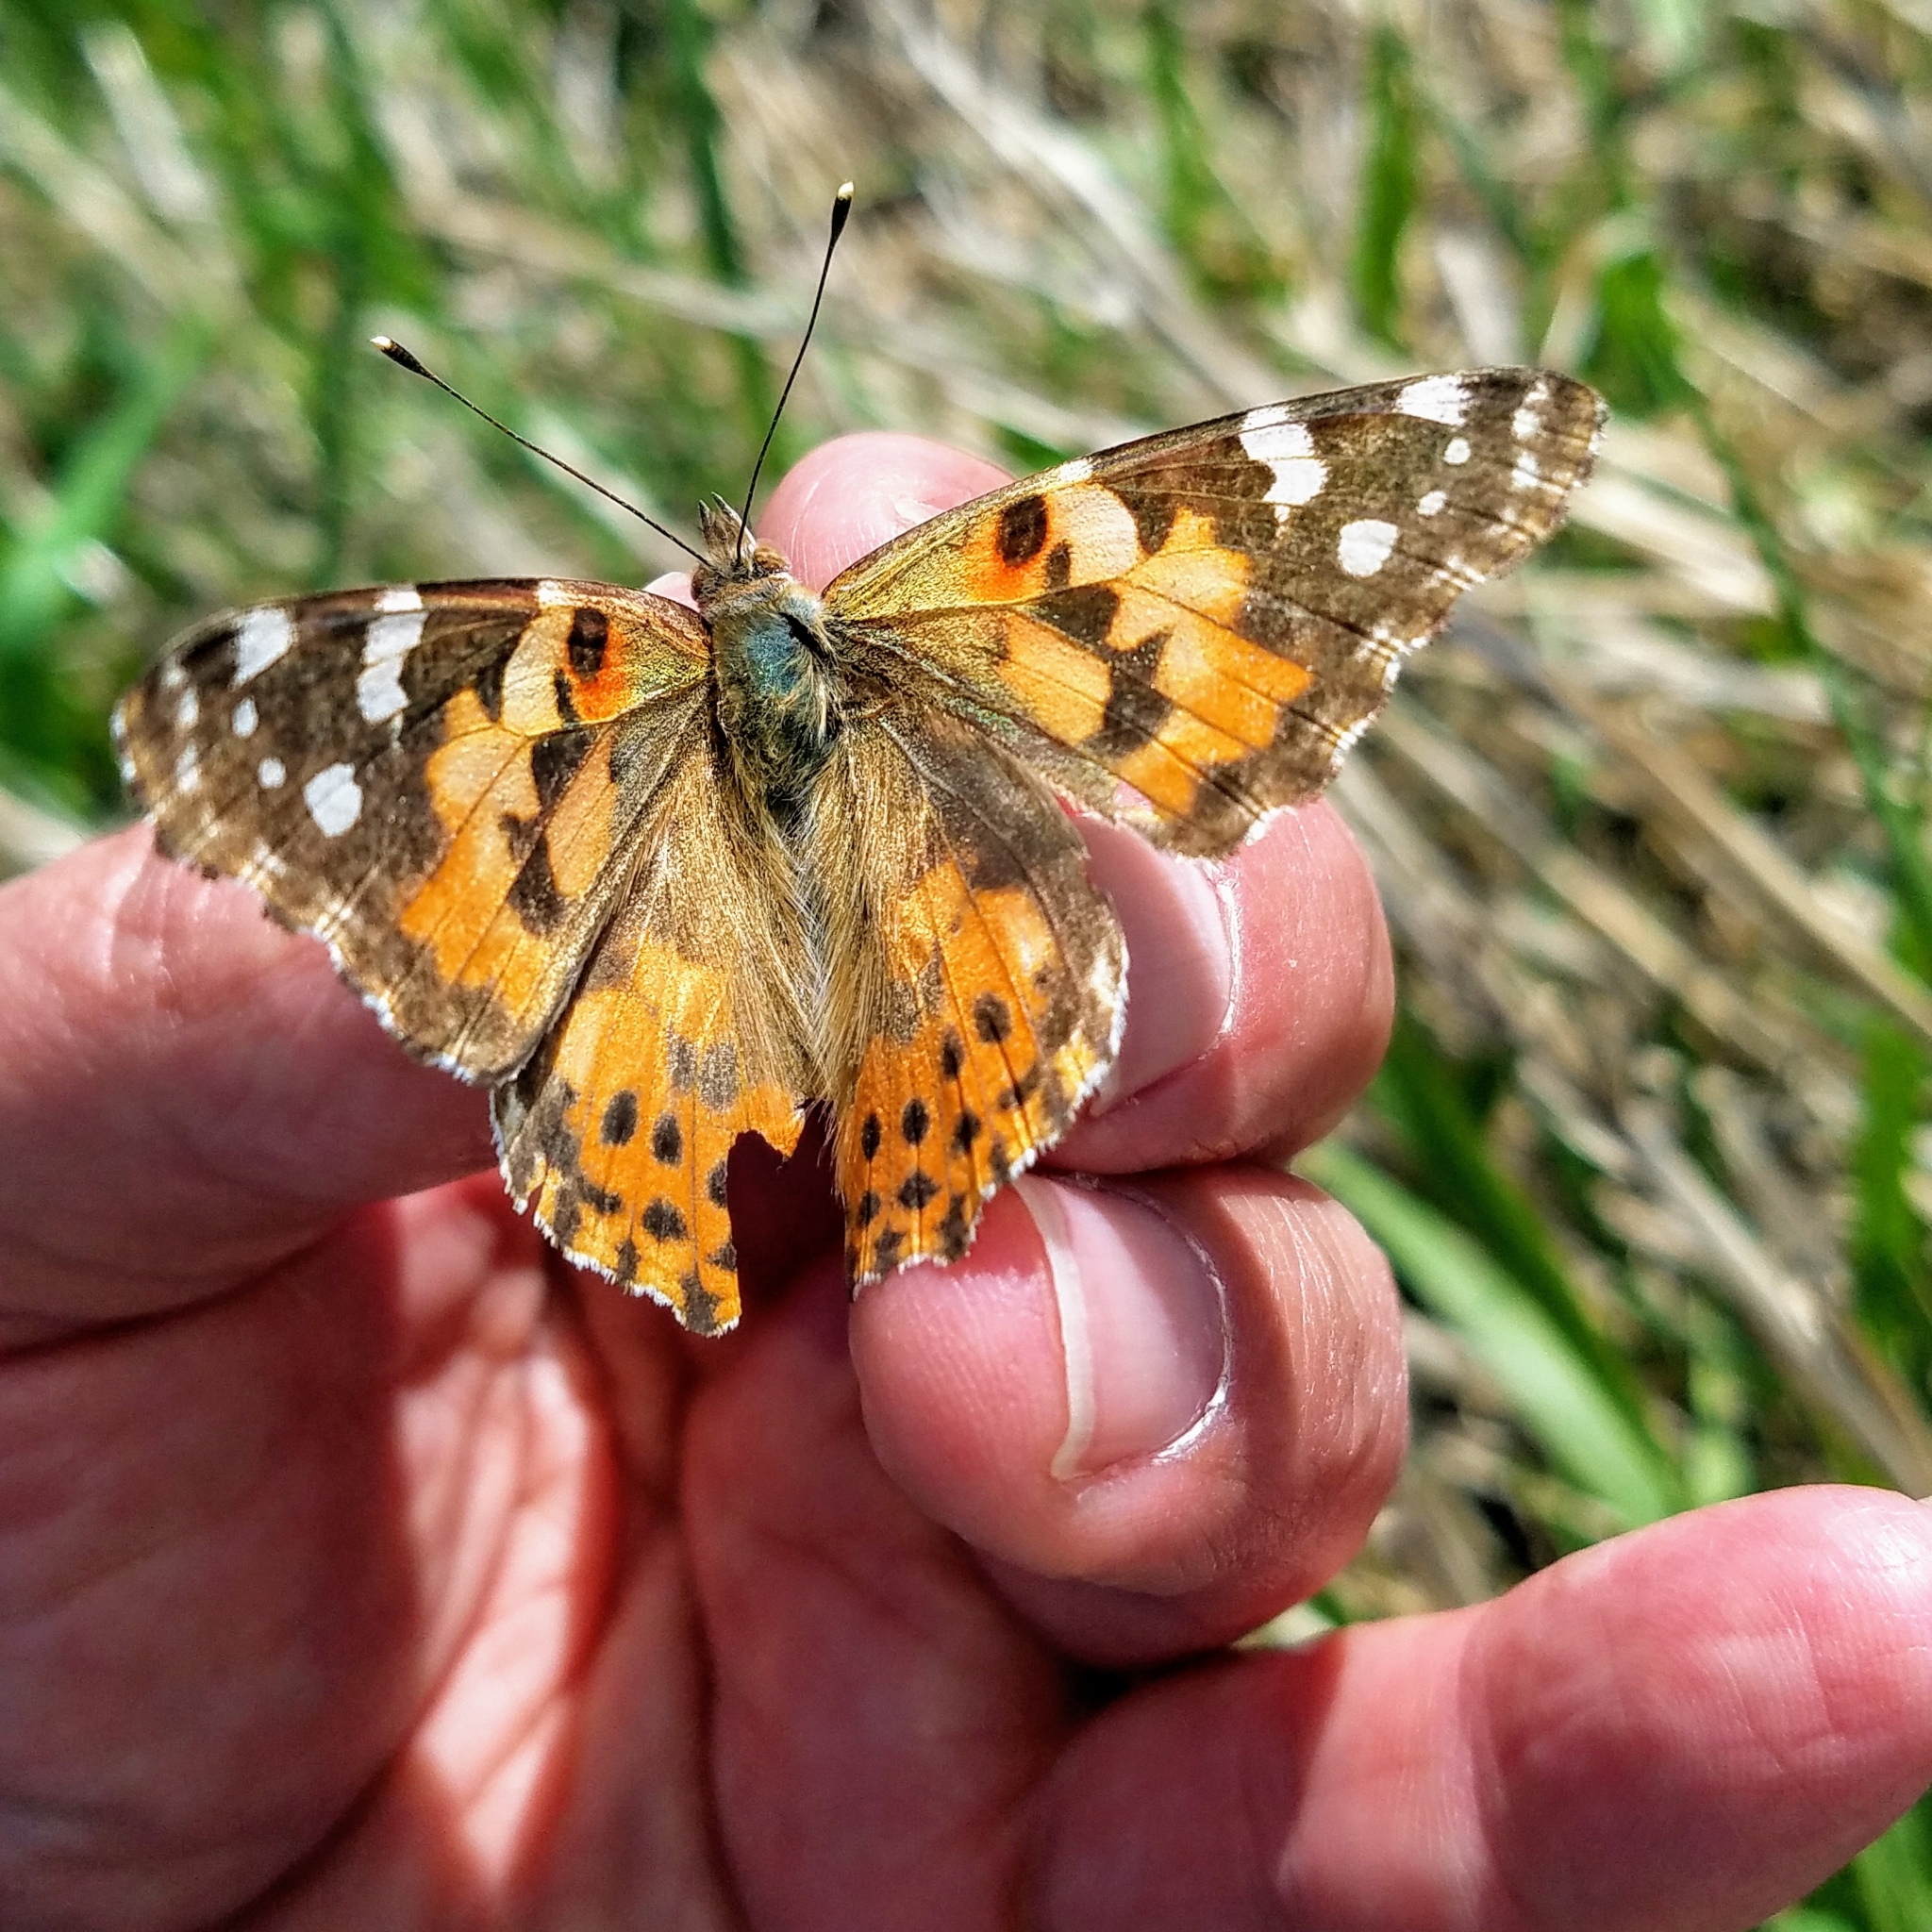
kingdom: Animalia
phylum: Arthropoda
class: Insecta
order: Lepidoptera
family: Nymphalidae
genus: Vanessa
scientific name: Vanessa cardui
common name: Painted lady
